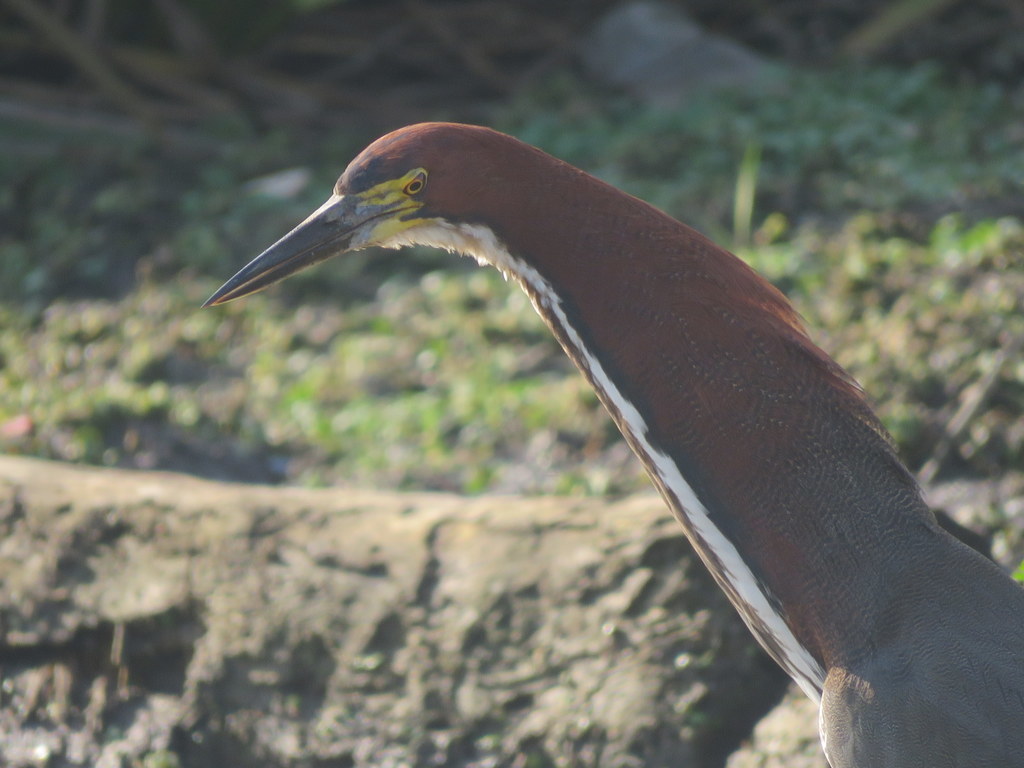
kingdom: Animalia
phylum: Chordata
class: Aves
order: Pelecaniformes
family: Ardeidae
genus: Tigrisoma
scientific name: Tigrisoma lineatum
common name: Rufescent tiger-heron
